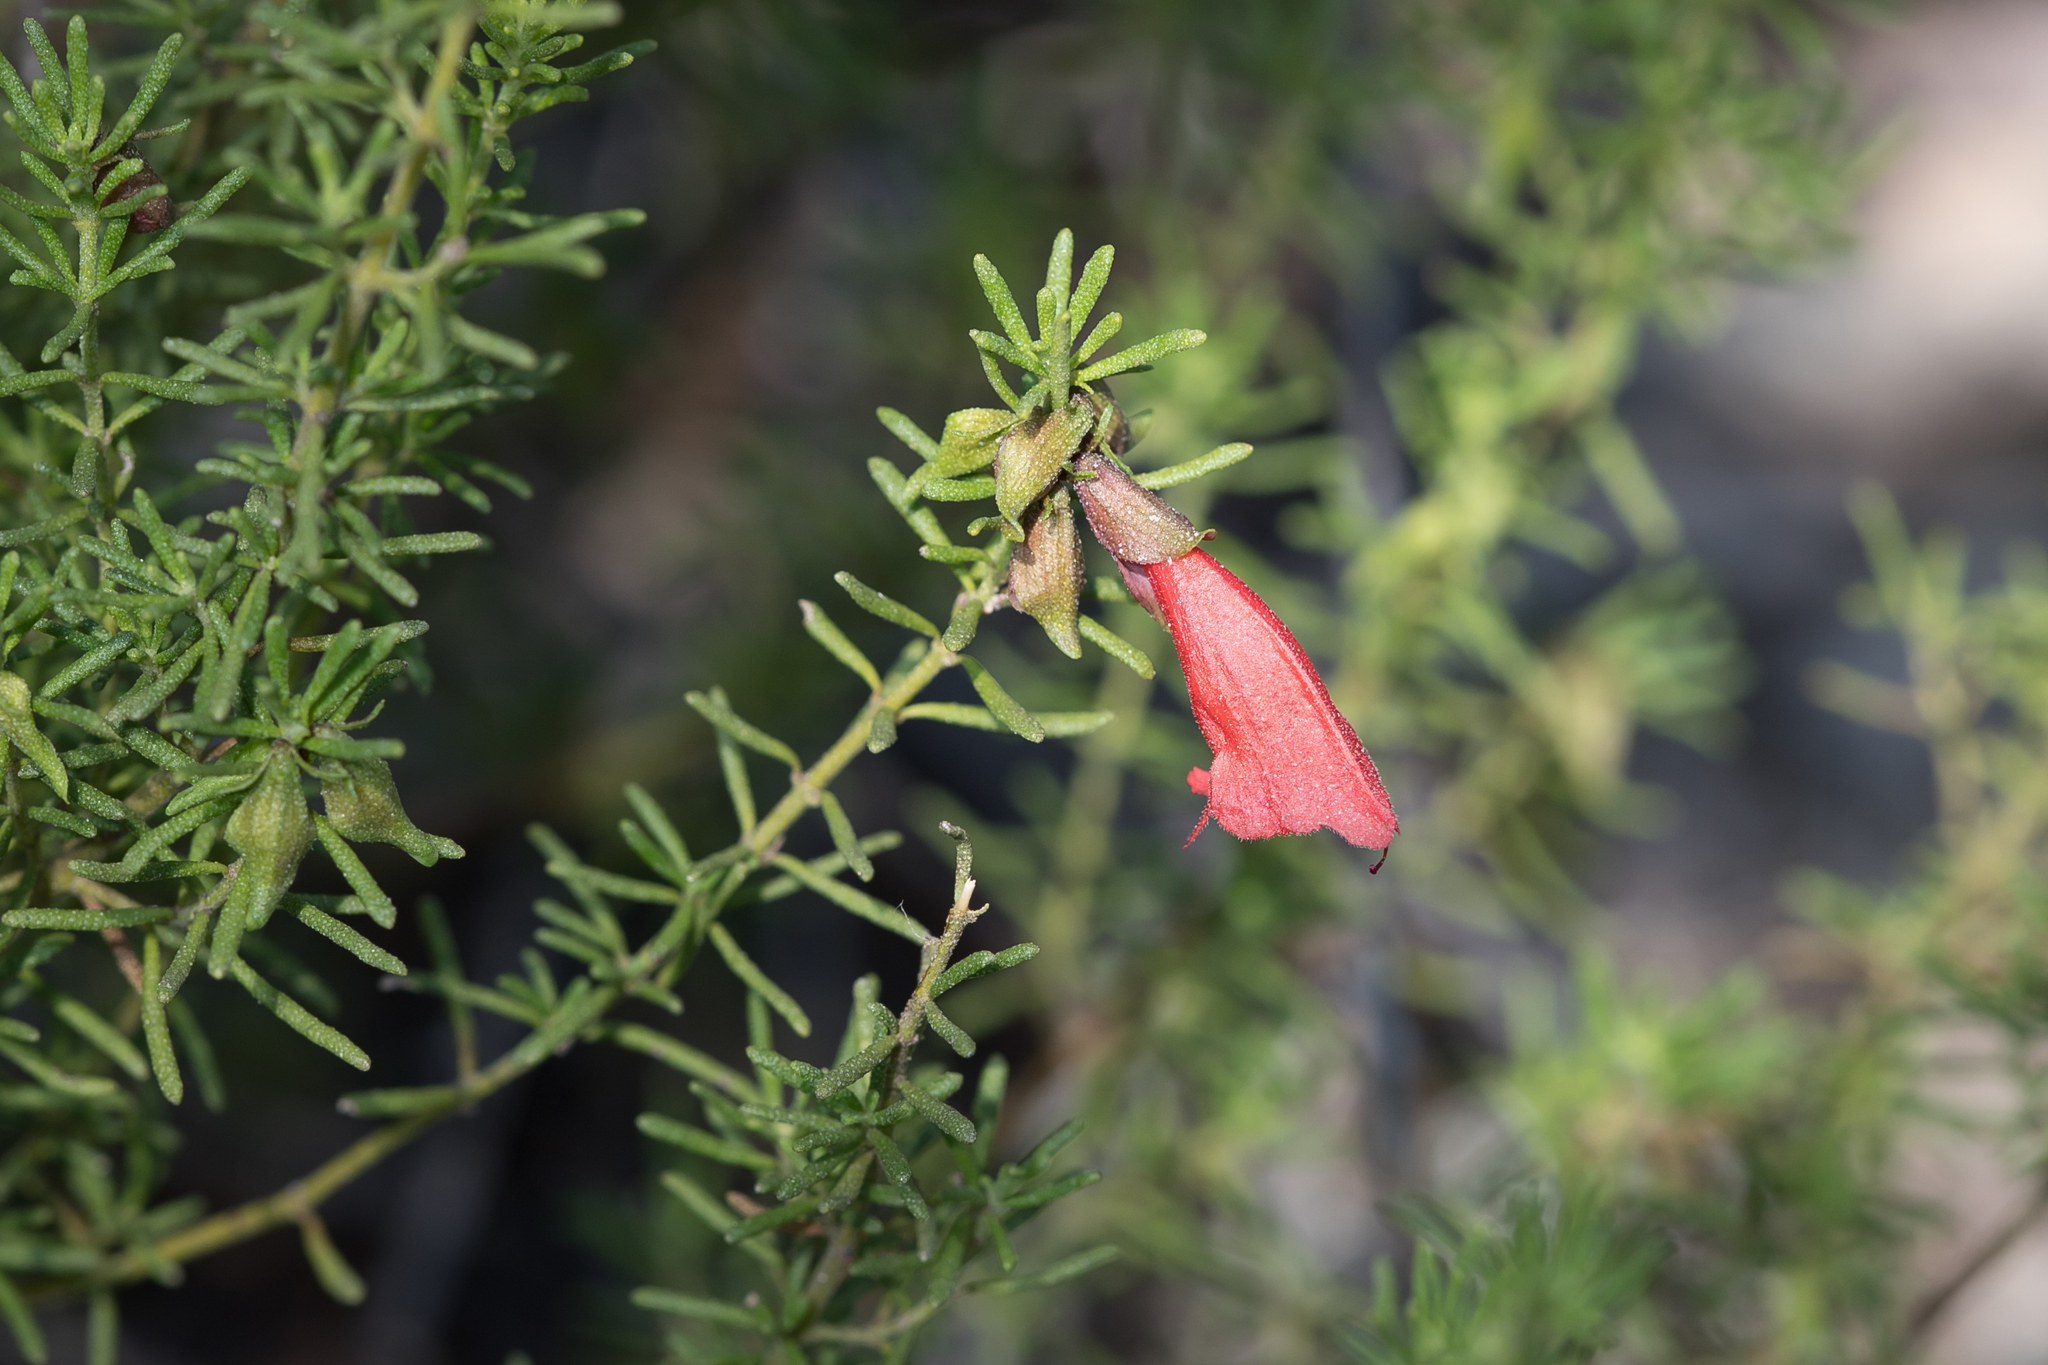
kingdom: Plantae
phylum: Tracheophyta
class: Magnoliopsida
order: Lamiales
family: Lamiaceae
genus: Prostanthera
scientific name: Prostanthera aspalathoides
